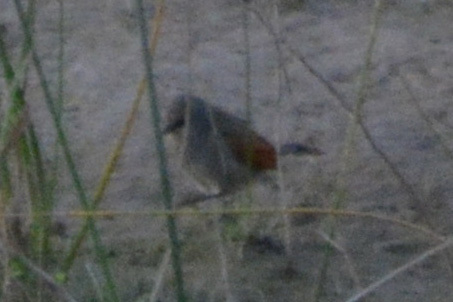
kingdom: Animalia
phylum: Chordata
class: Aves
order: Passeriformes
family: Icteridae
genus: Agelaioides
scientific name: Agelaioides badius
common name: Baywing
